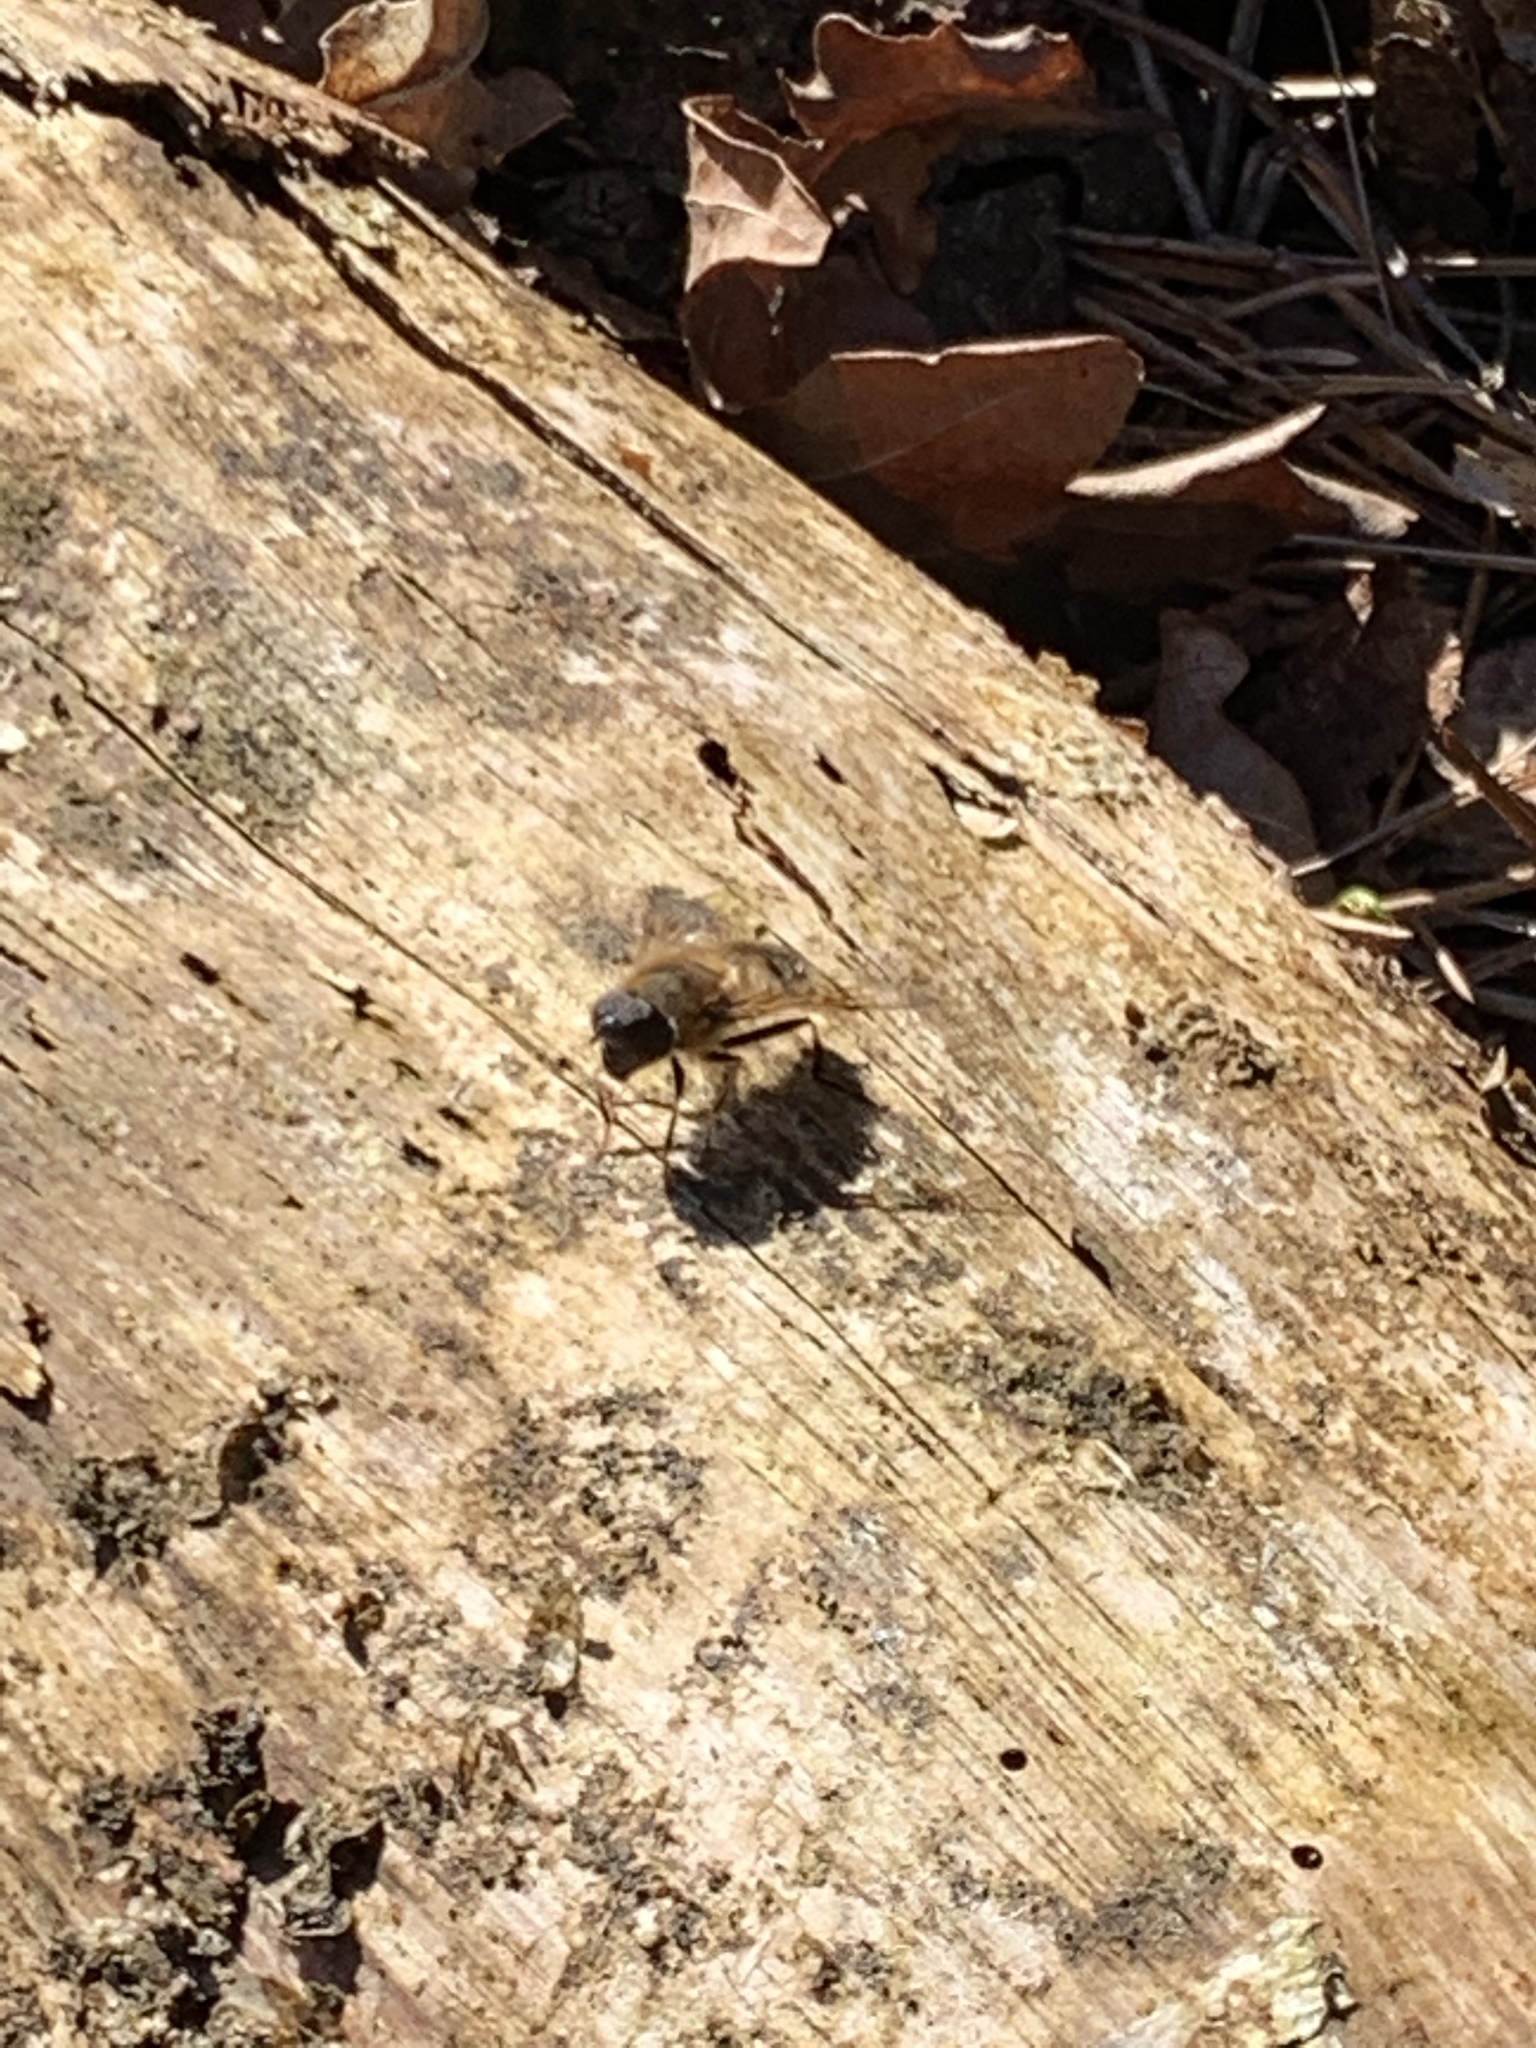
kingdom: Animalia
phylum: Arthropoda
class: Insecta
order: Diptera
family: Syrphidae
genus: Eristalis
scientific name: Eristalis pertinax
